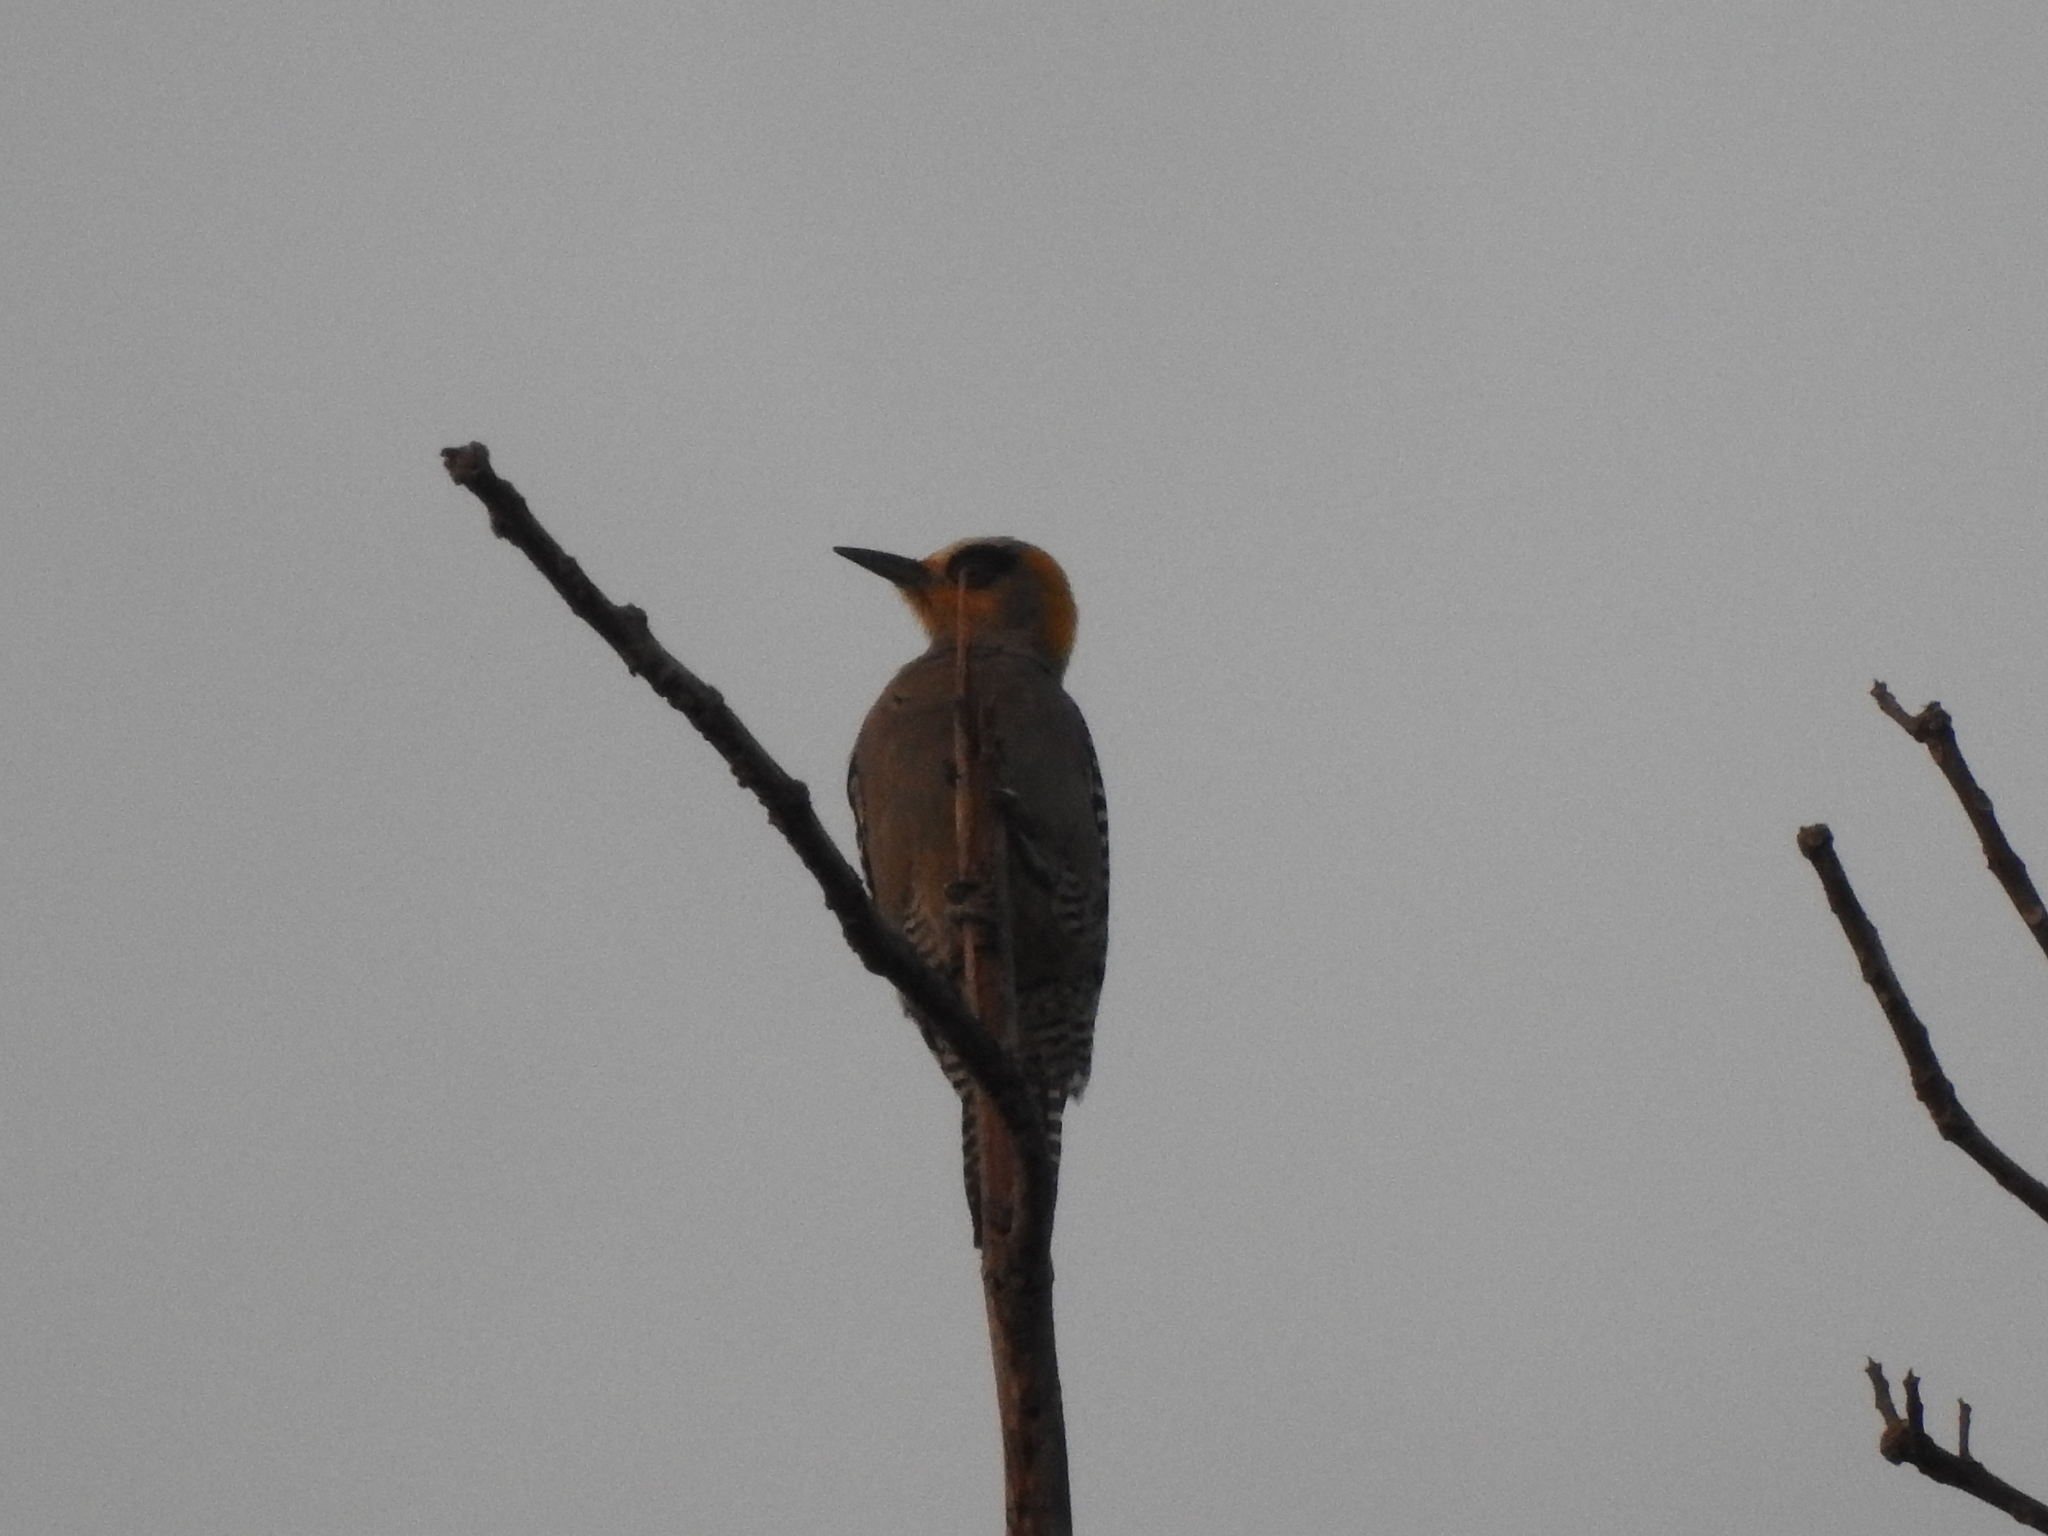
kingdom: Animalia
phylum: Chordata
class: Aves
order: Piciformes
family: Picidae
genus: Melanerpes
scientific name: Melanerpes chrysogenys
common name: Golden-cheeked woodpecker
